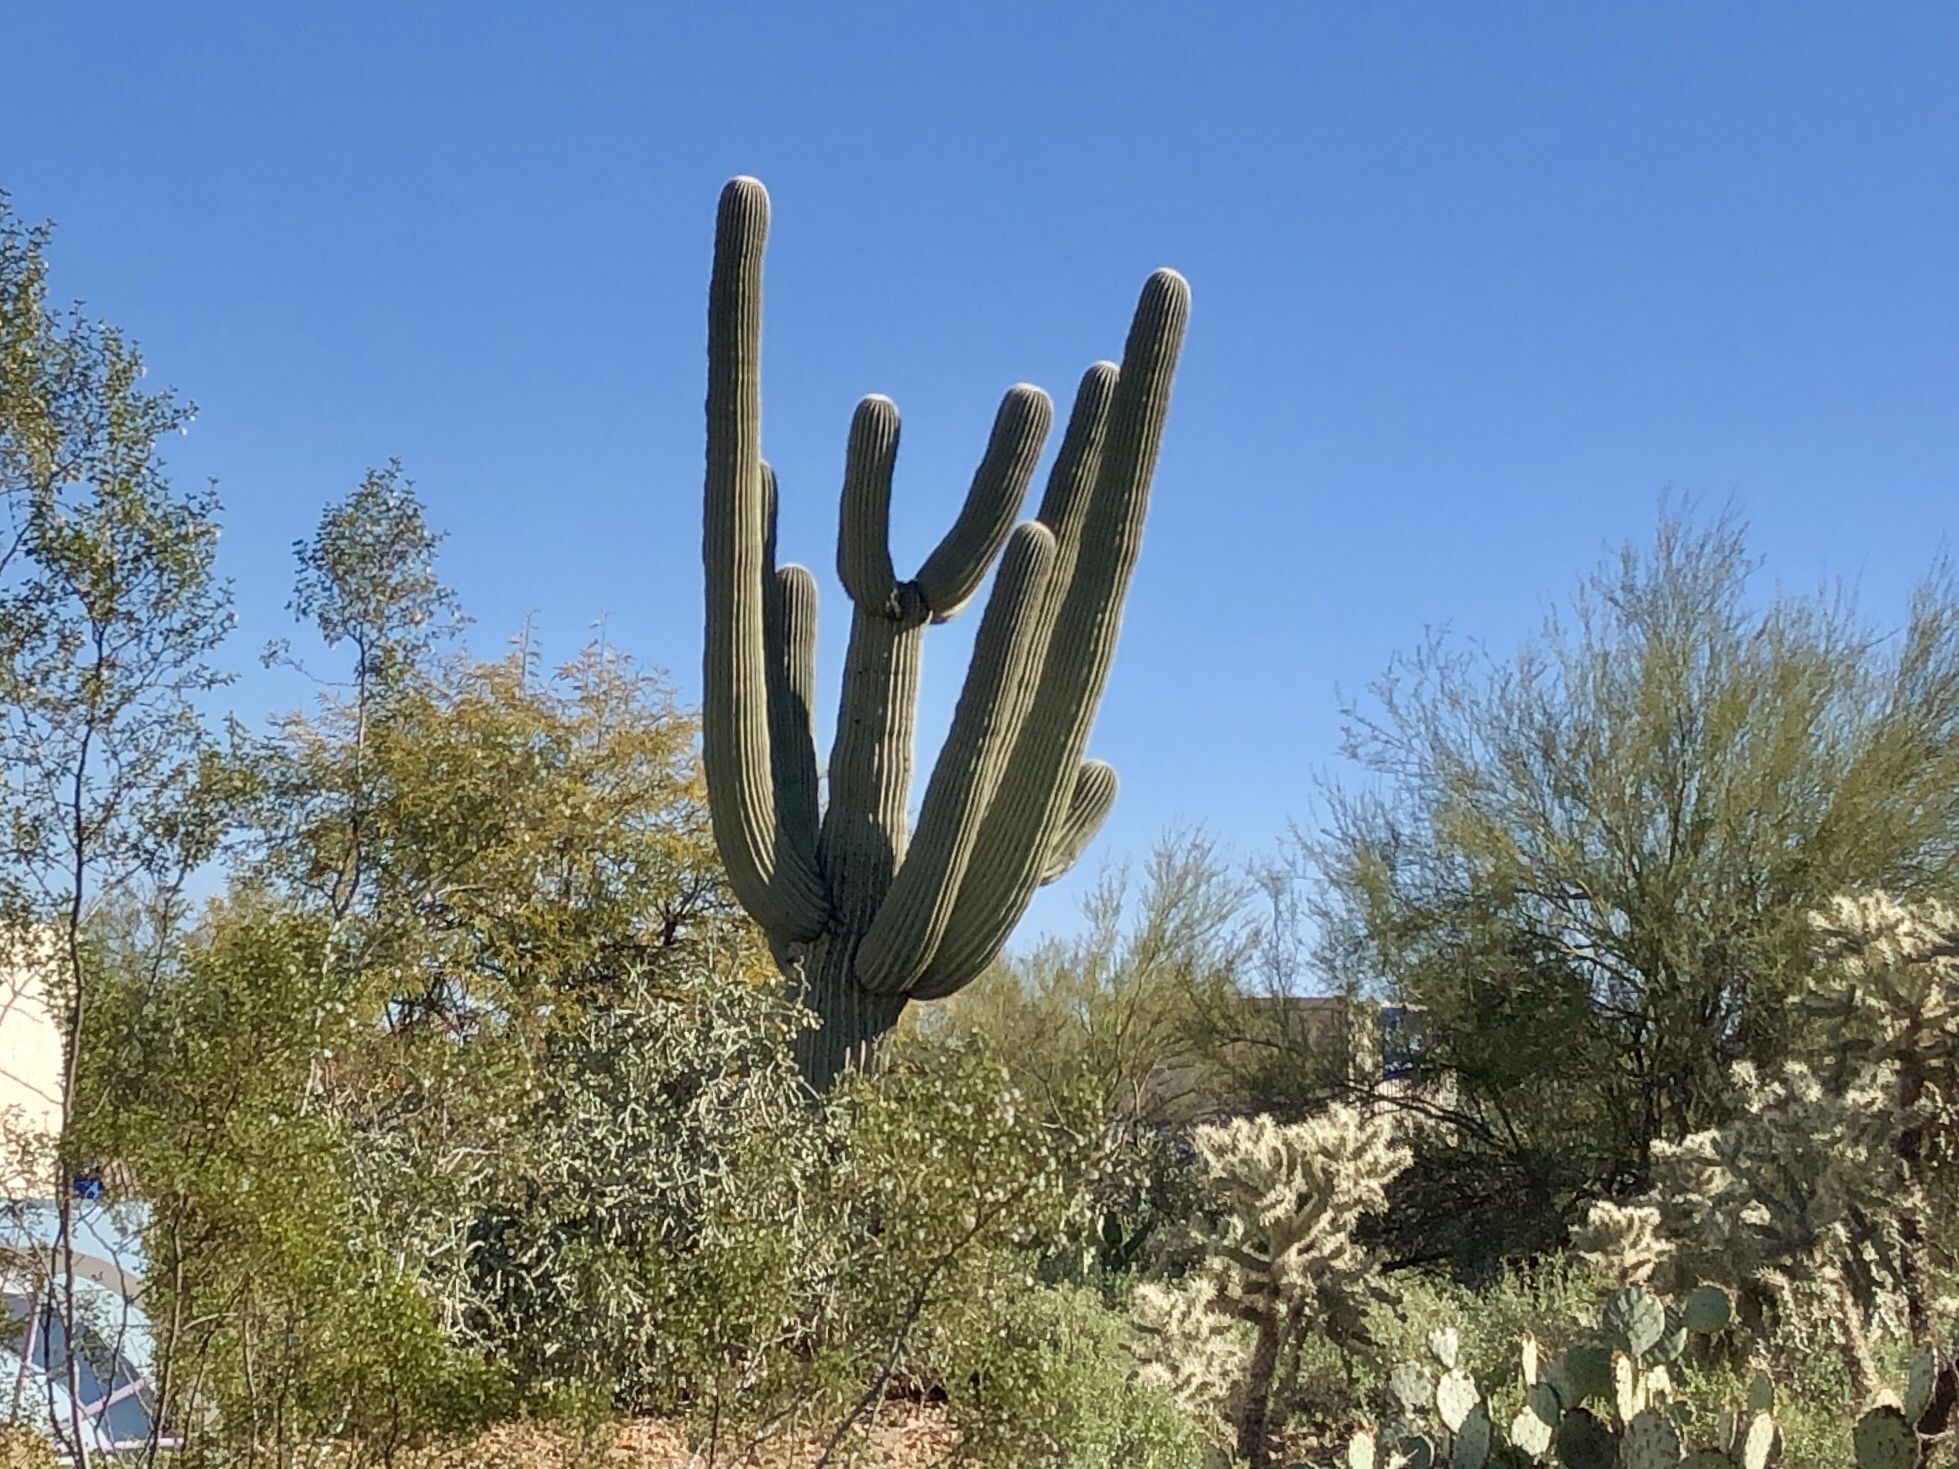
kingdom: Plantae
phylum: Tracheophyta
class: Magnoliopsida
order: Caryophyllales
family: Cactaceae
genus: Carnegiea
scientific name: Carnegiea gigantea
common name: Saguaro
